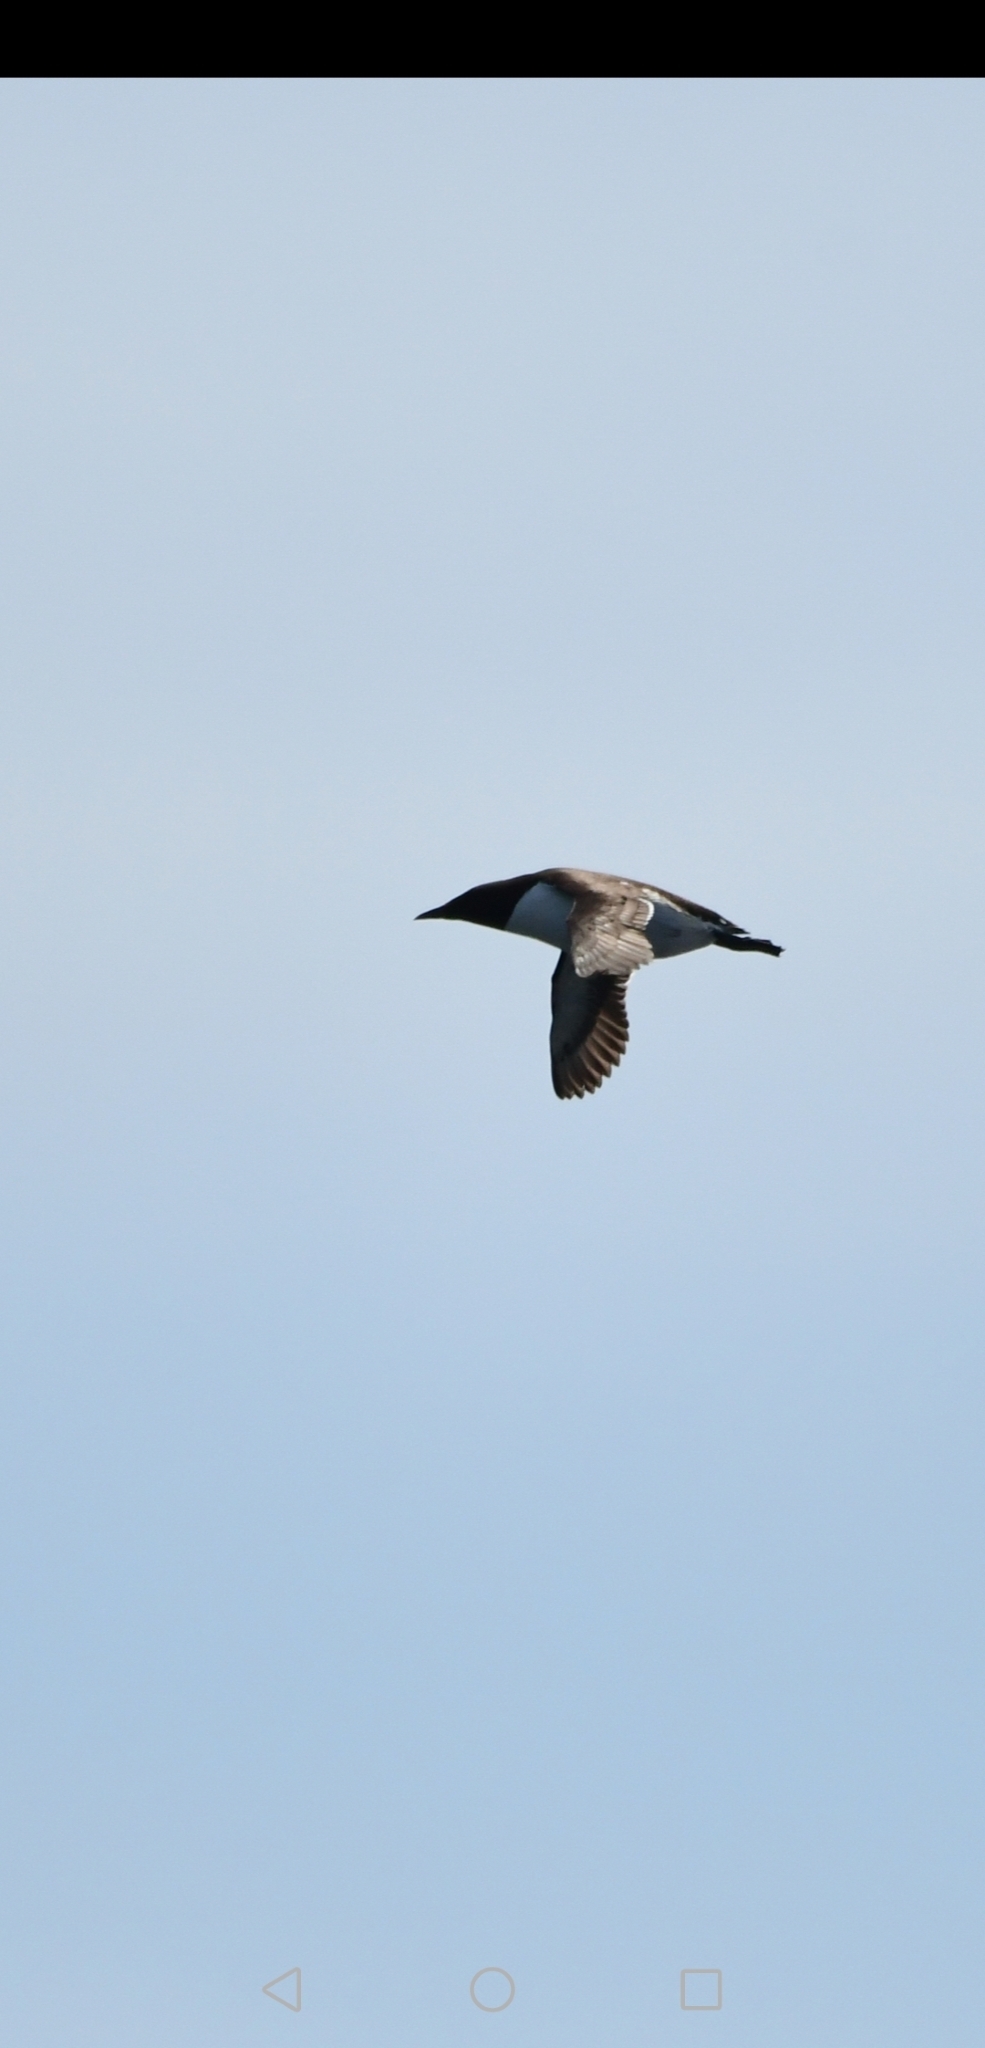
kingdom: Animalia
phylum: Chordata
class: Aves
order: Charadriiformes
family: Alcidae
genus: Uria
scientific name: Uria aalge
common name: Common murre
